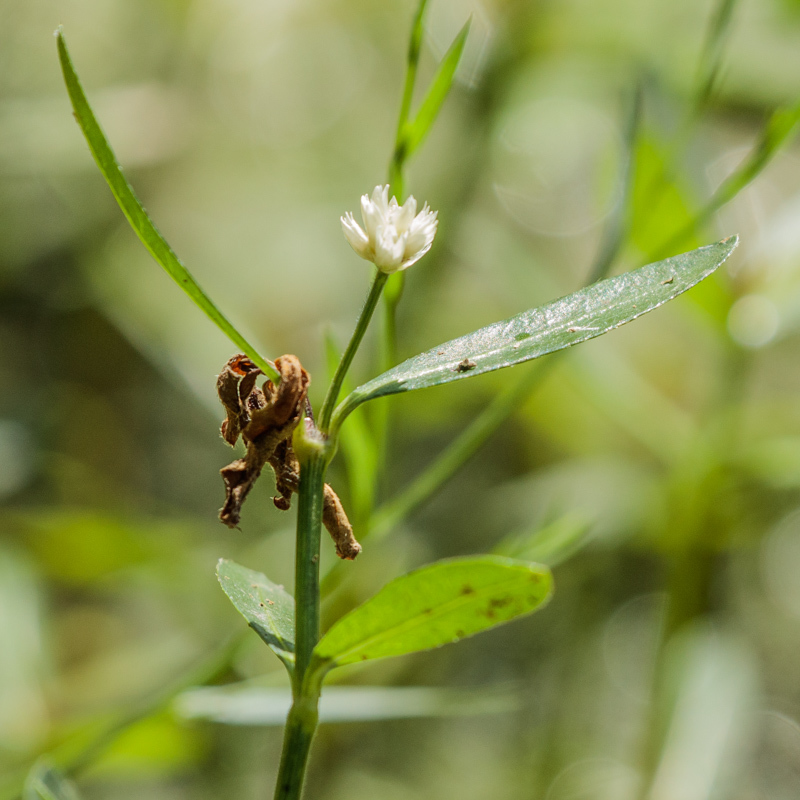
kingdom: Plantae
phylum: Tracheophyta
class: Magnoliopsida
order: Caryophyllales
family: Amaranthaceae
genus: Alternanthera
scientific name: Alternanthera philoxeroides
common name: Alligatorweed
